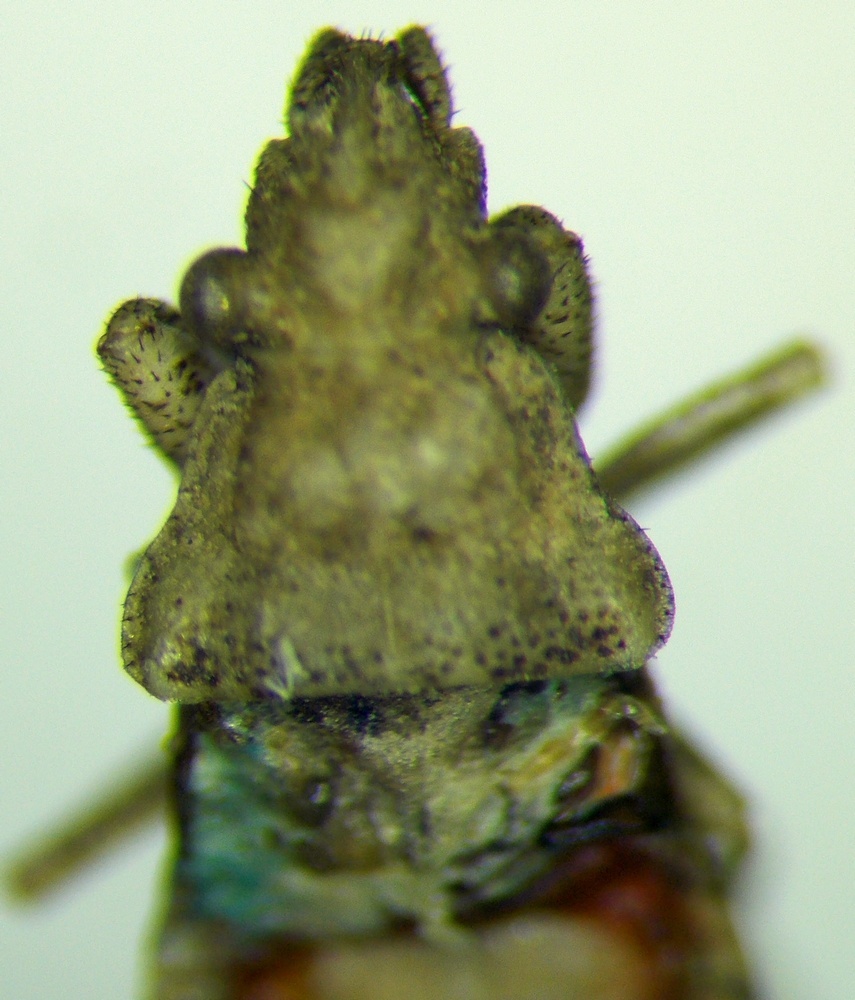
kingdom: Animalia
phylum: Arthropoda
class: Insecta
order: Hemiptera
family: Rhyparochromidae
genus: Diomphalus
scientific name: Diomphalus hispidulus
